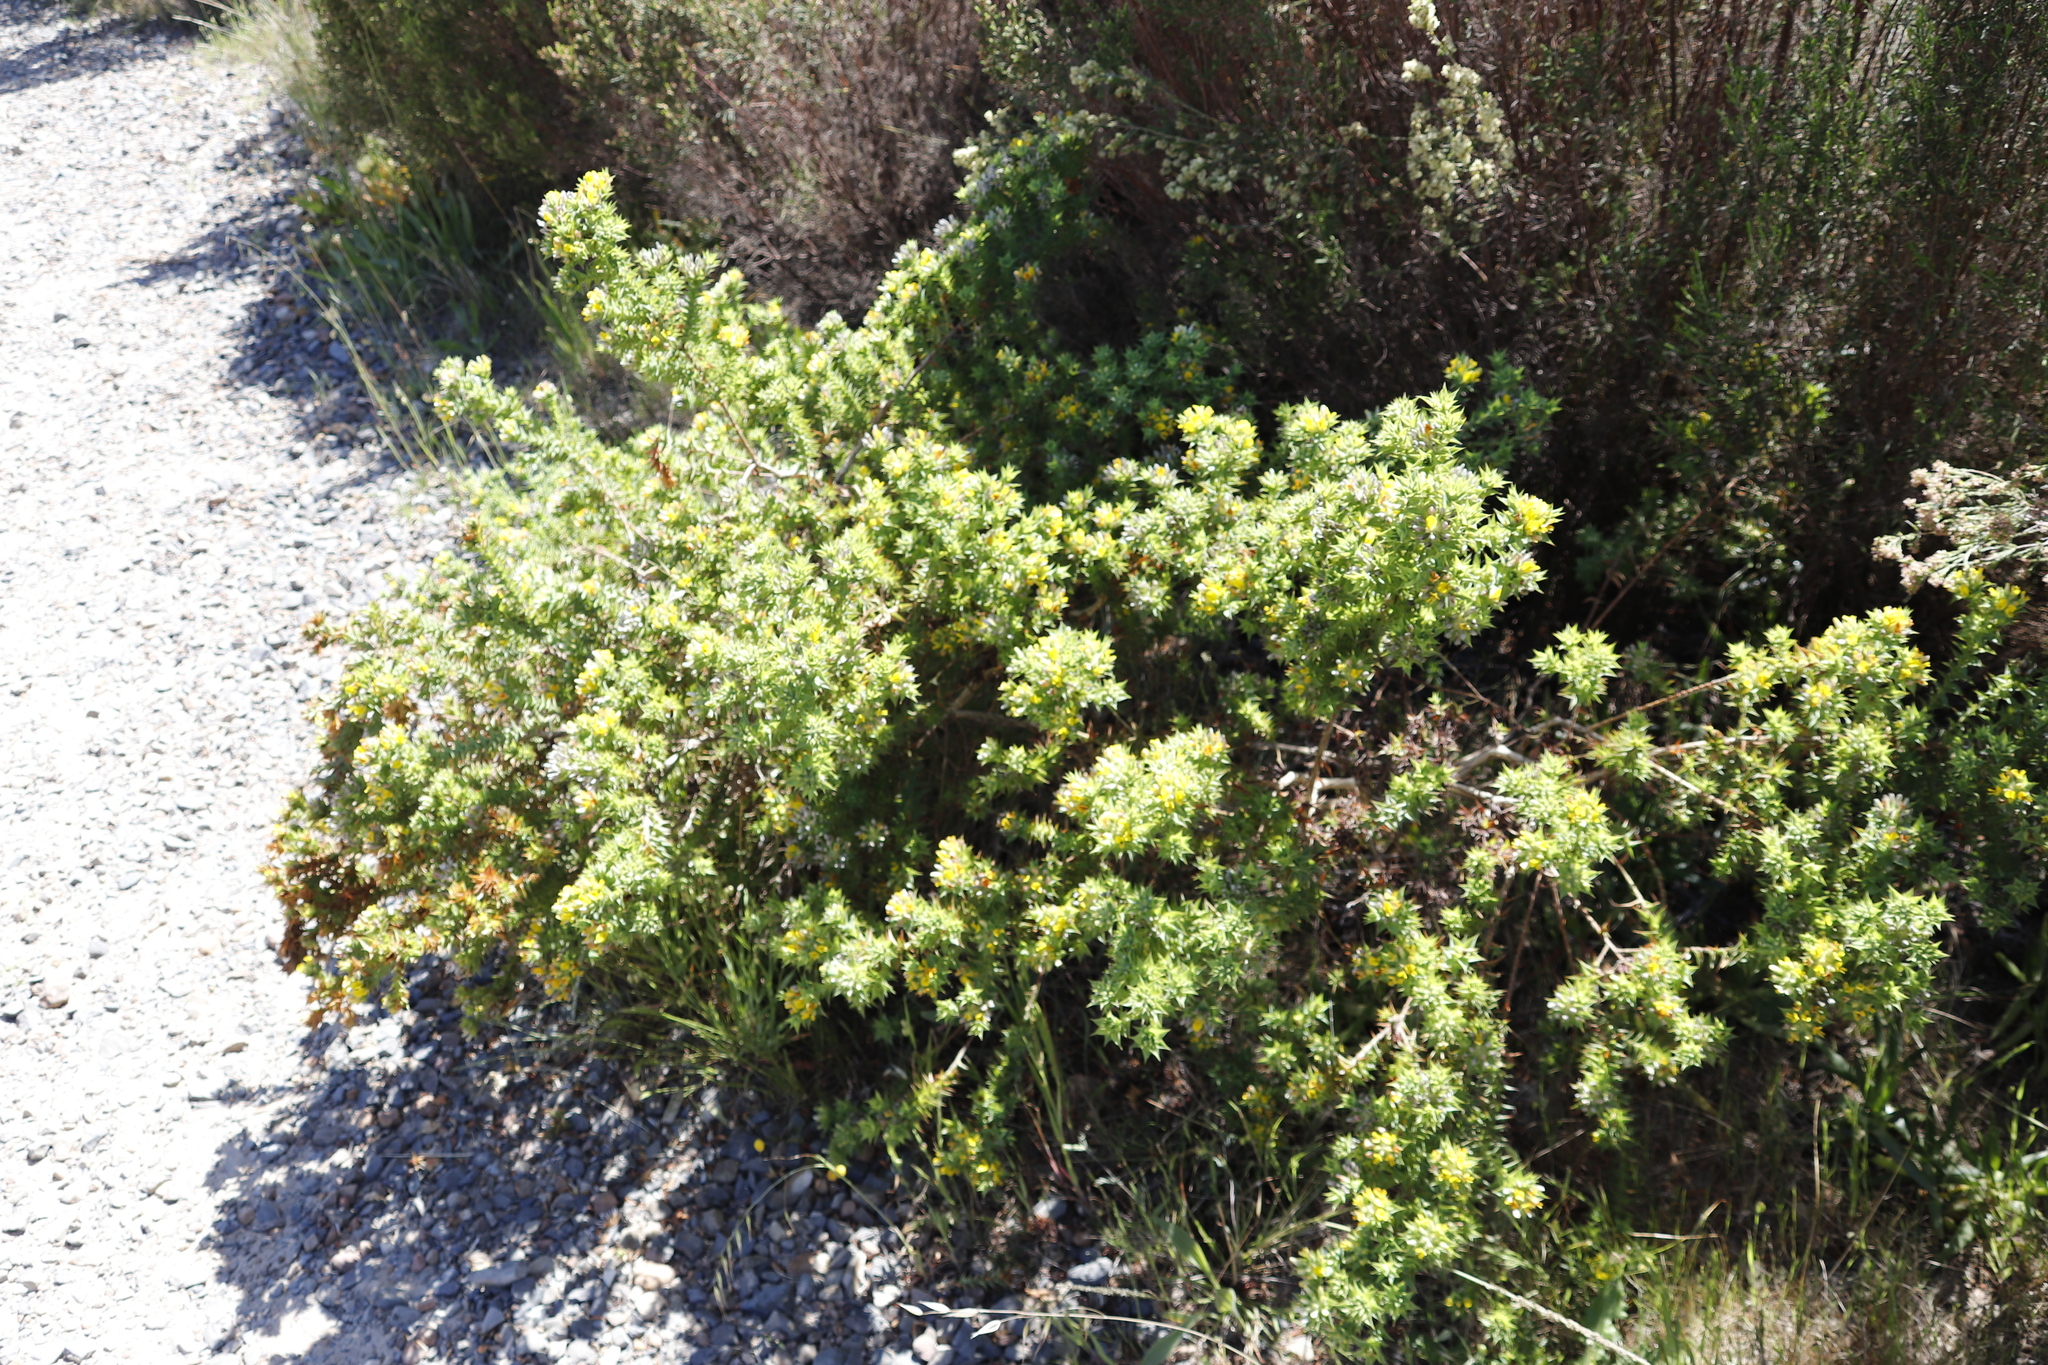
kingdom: Plantae
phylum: Tracheophyta
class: Magnoliopsida
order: Fabales
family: Fabaceae
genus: Aspalathus
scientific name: Aspalathus cordata
